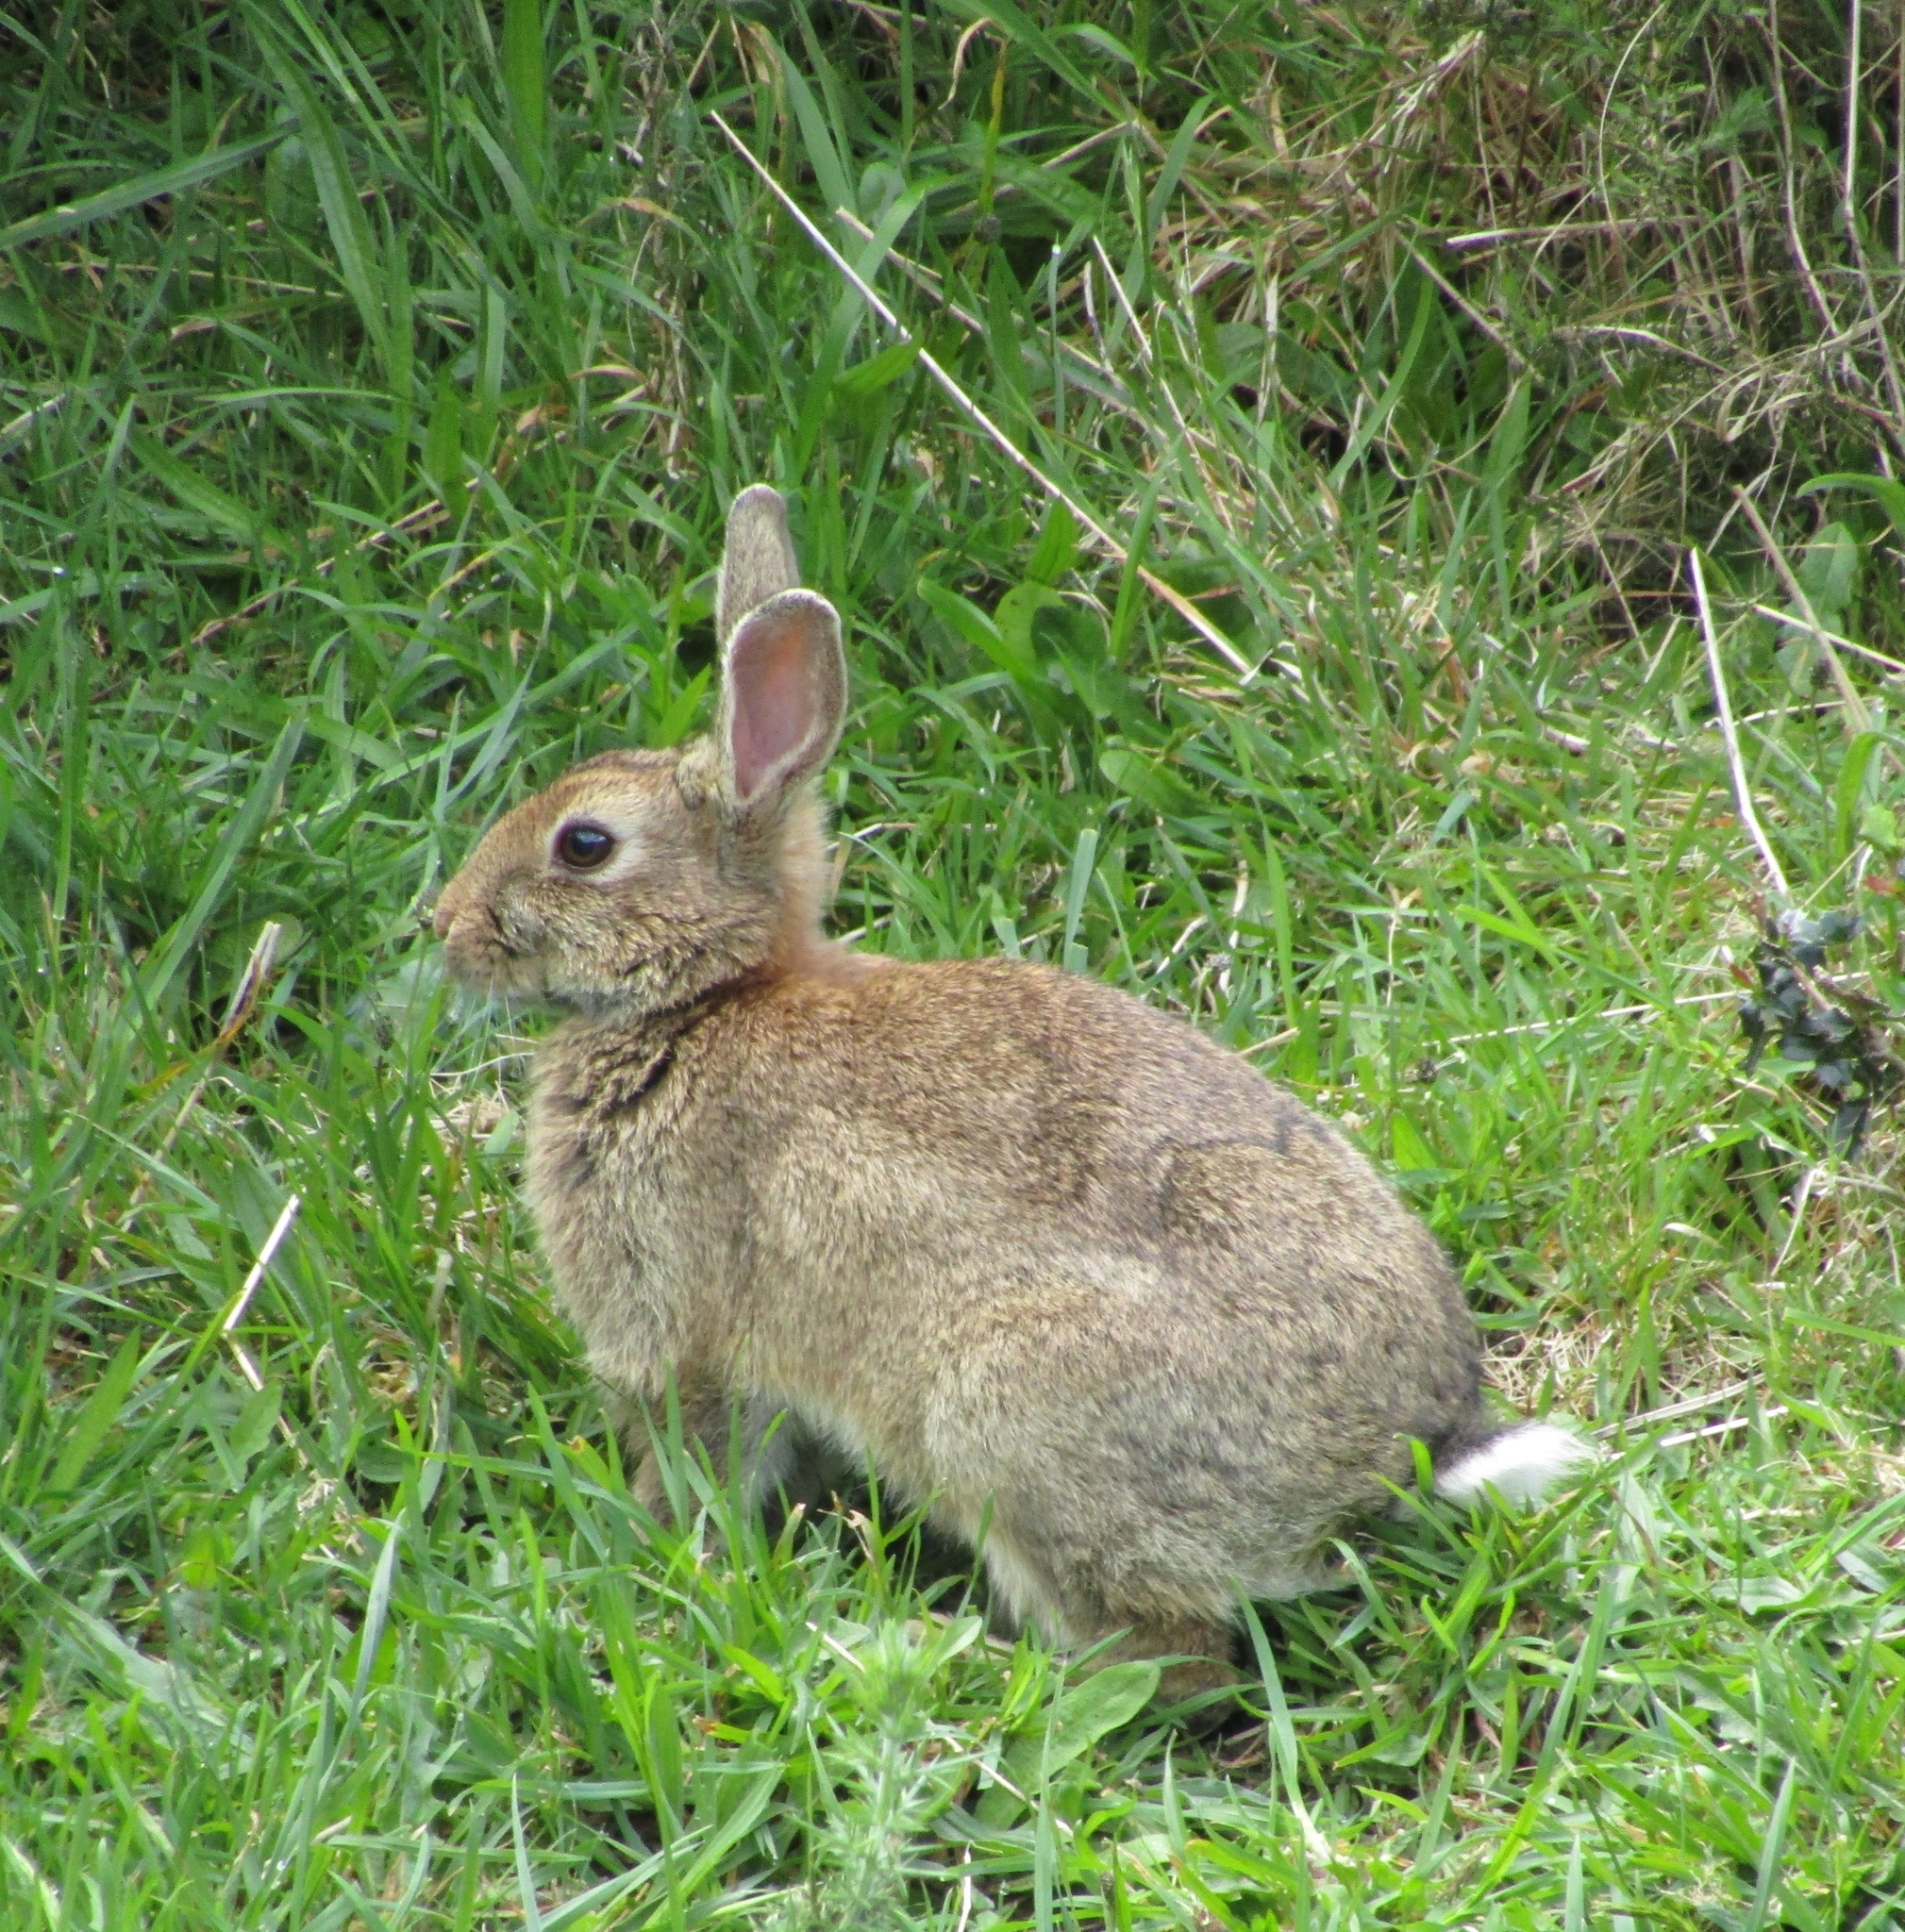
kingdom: Animalia
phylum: Chordata
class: Mammalia
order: Lagomorpha
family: Leporidae
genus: Oryctolagus
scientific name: Oryctolagus cuniculus
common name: European rabbit
